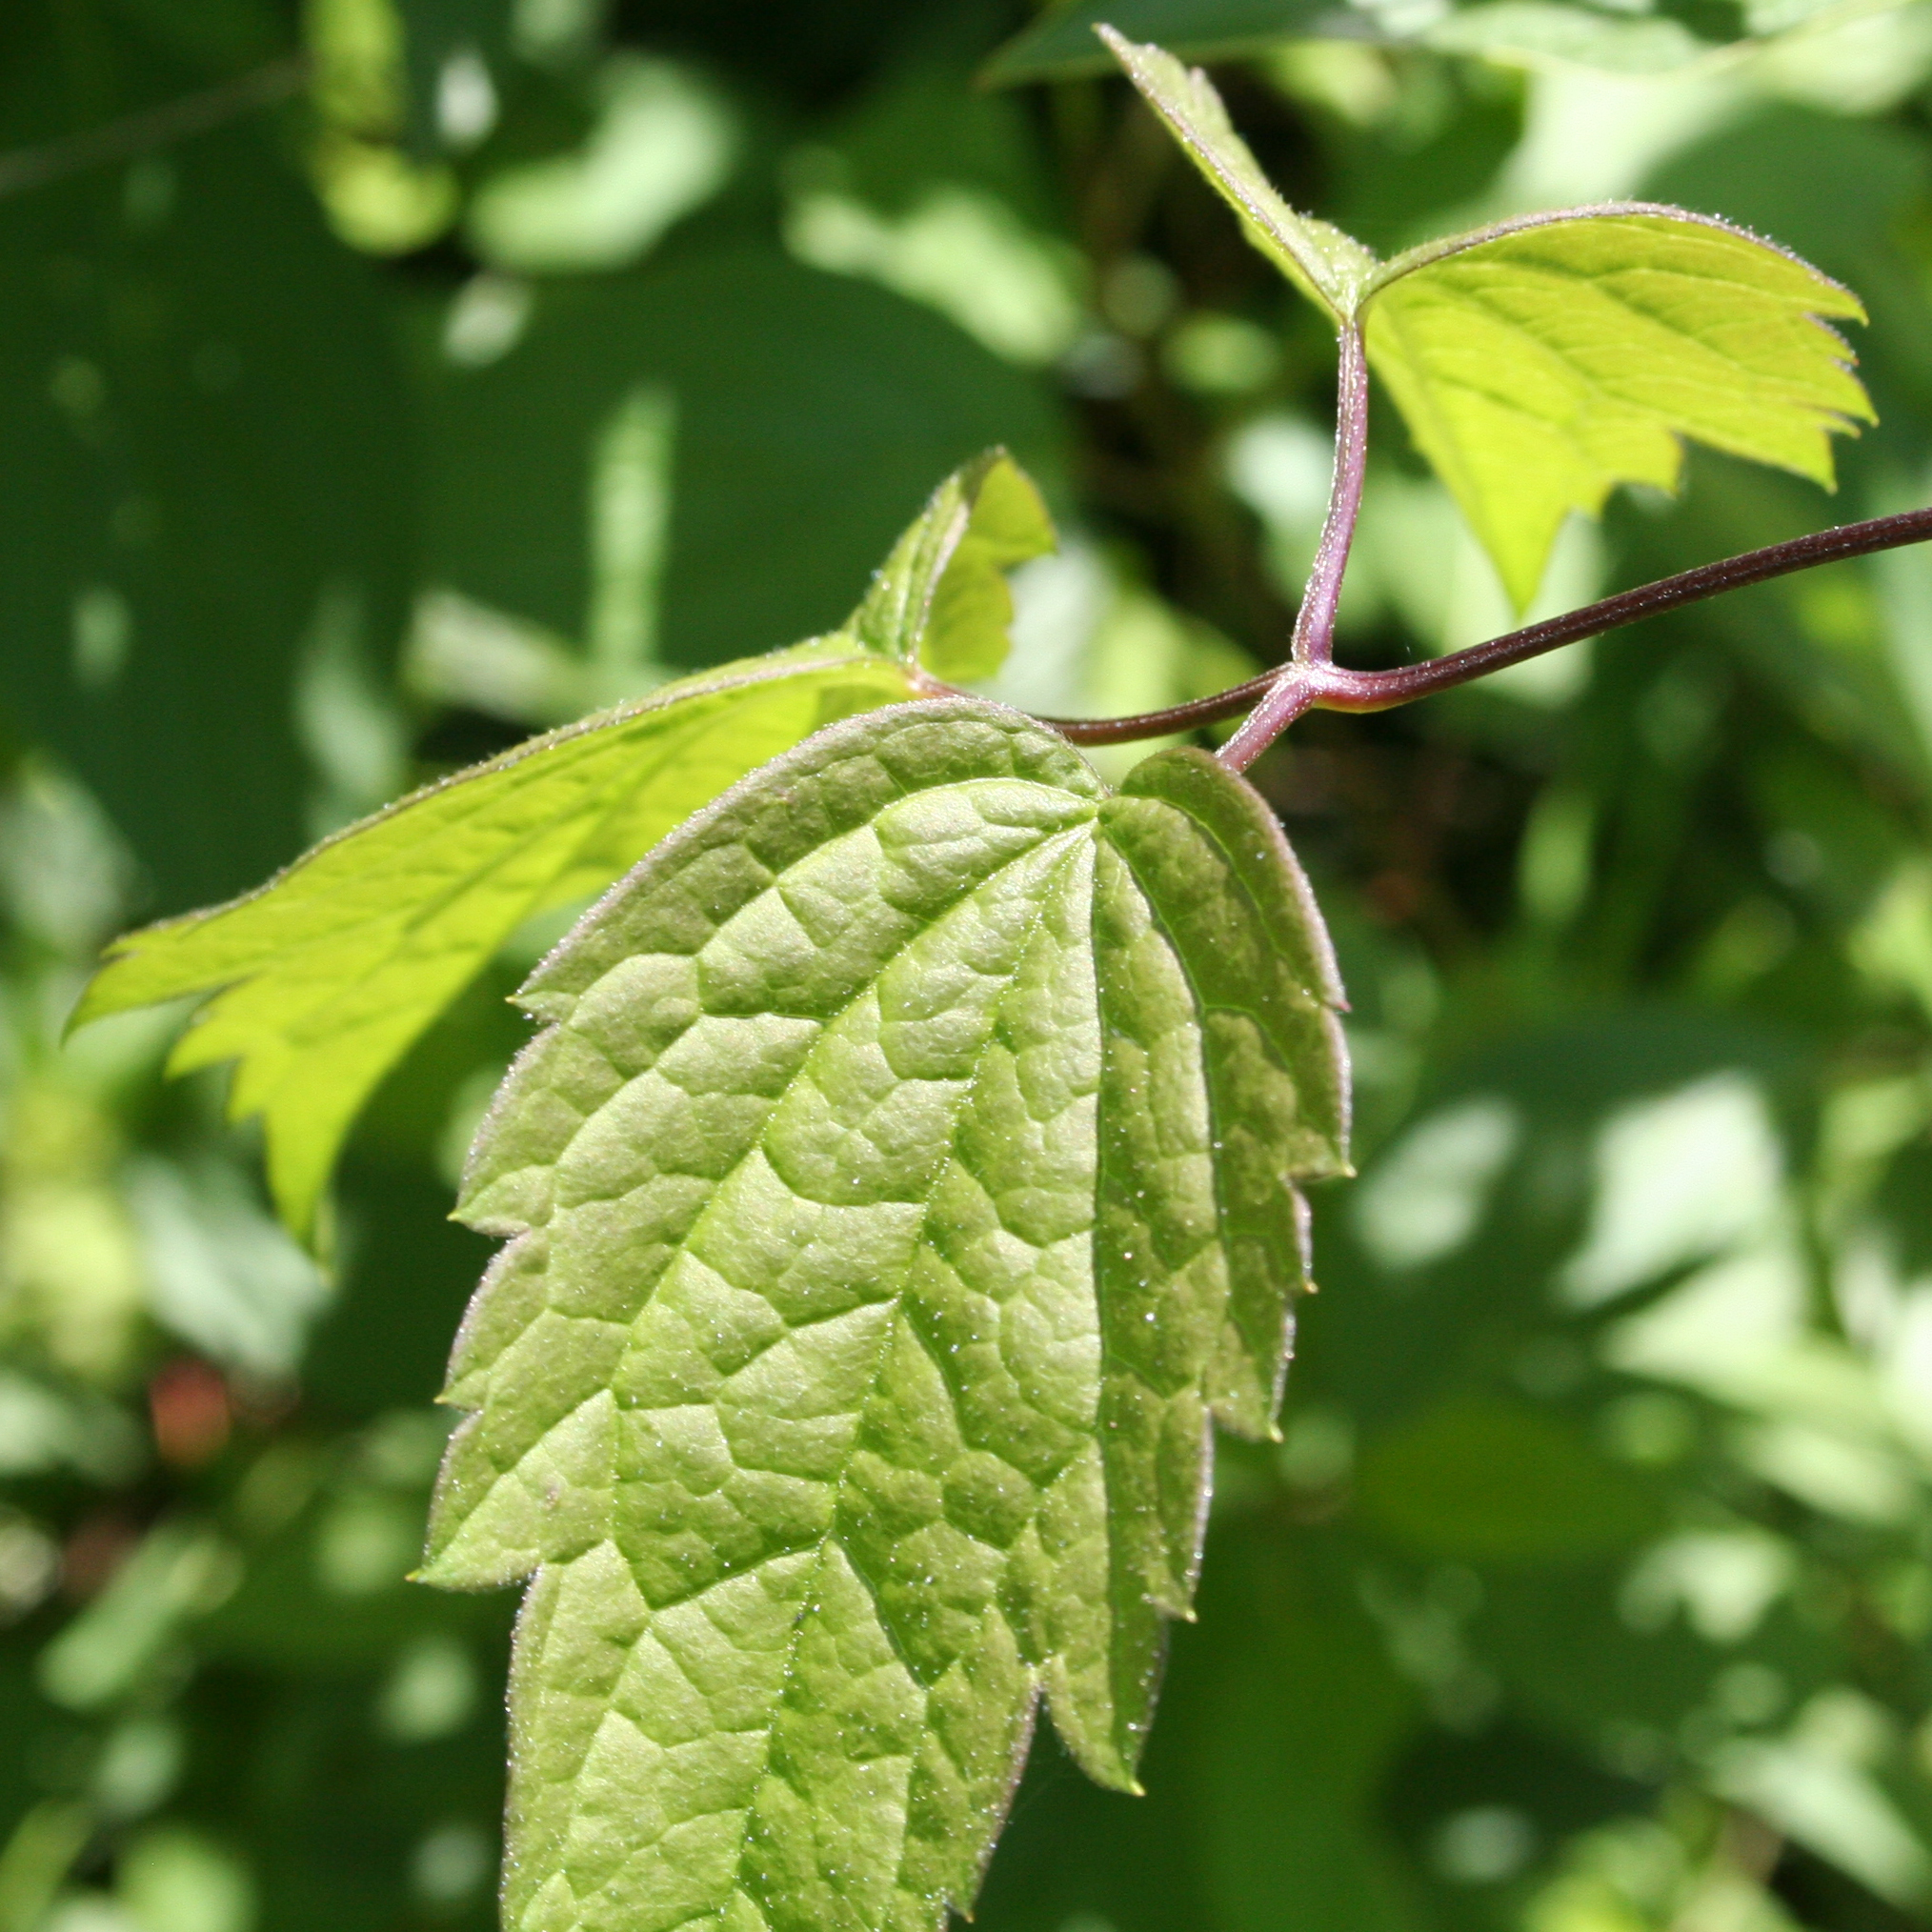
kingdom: Plantae
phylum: Tracheophyta
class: Magnoliopsida
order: Ranunculales
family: Ranunculaceae
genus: Clematis
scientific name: Clematis virginiana
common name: Virgin's-bower
